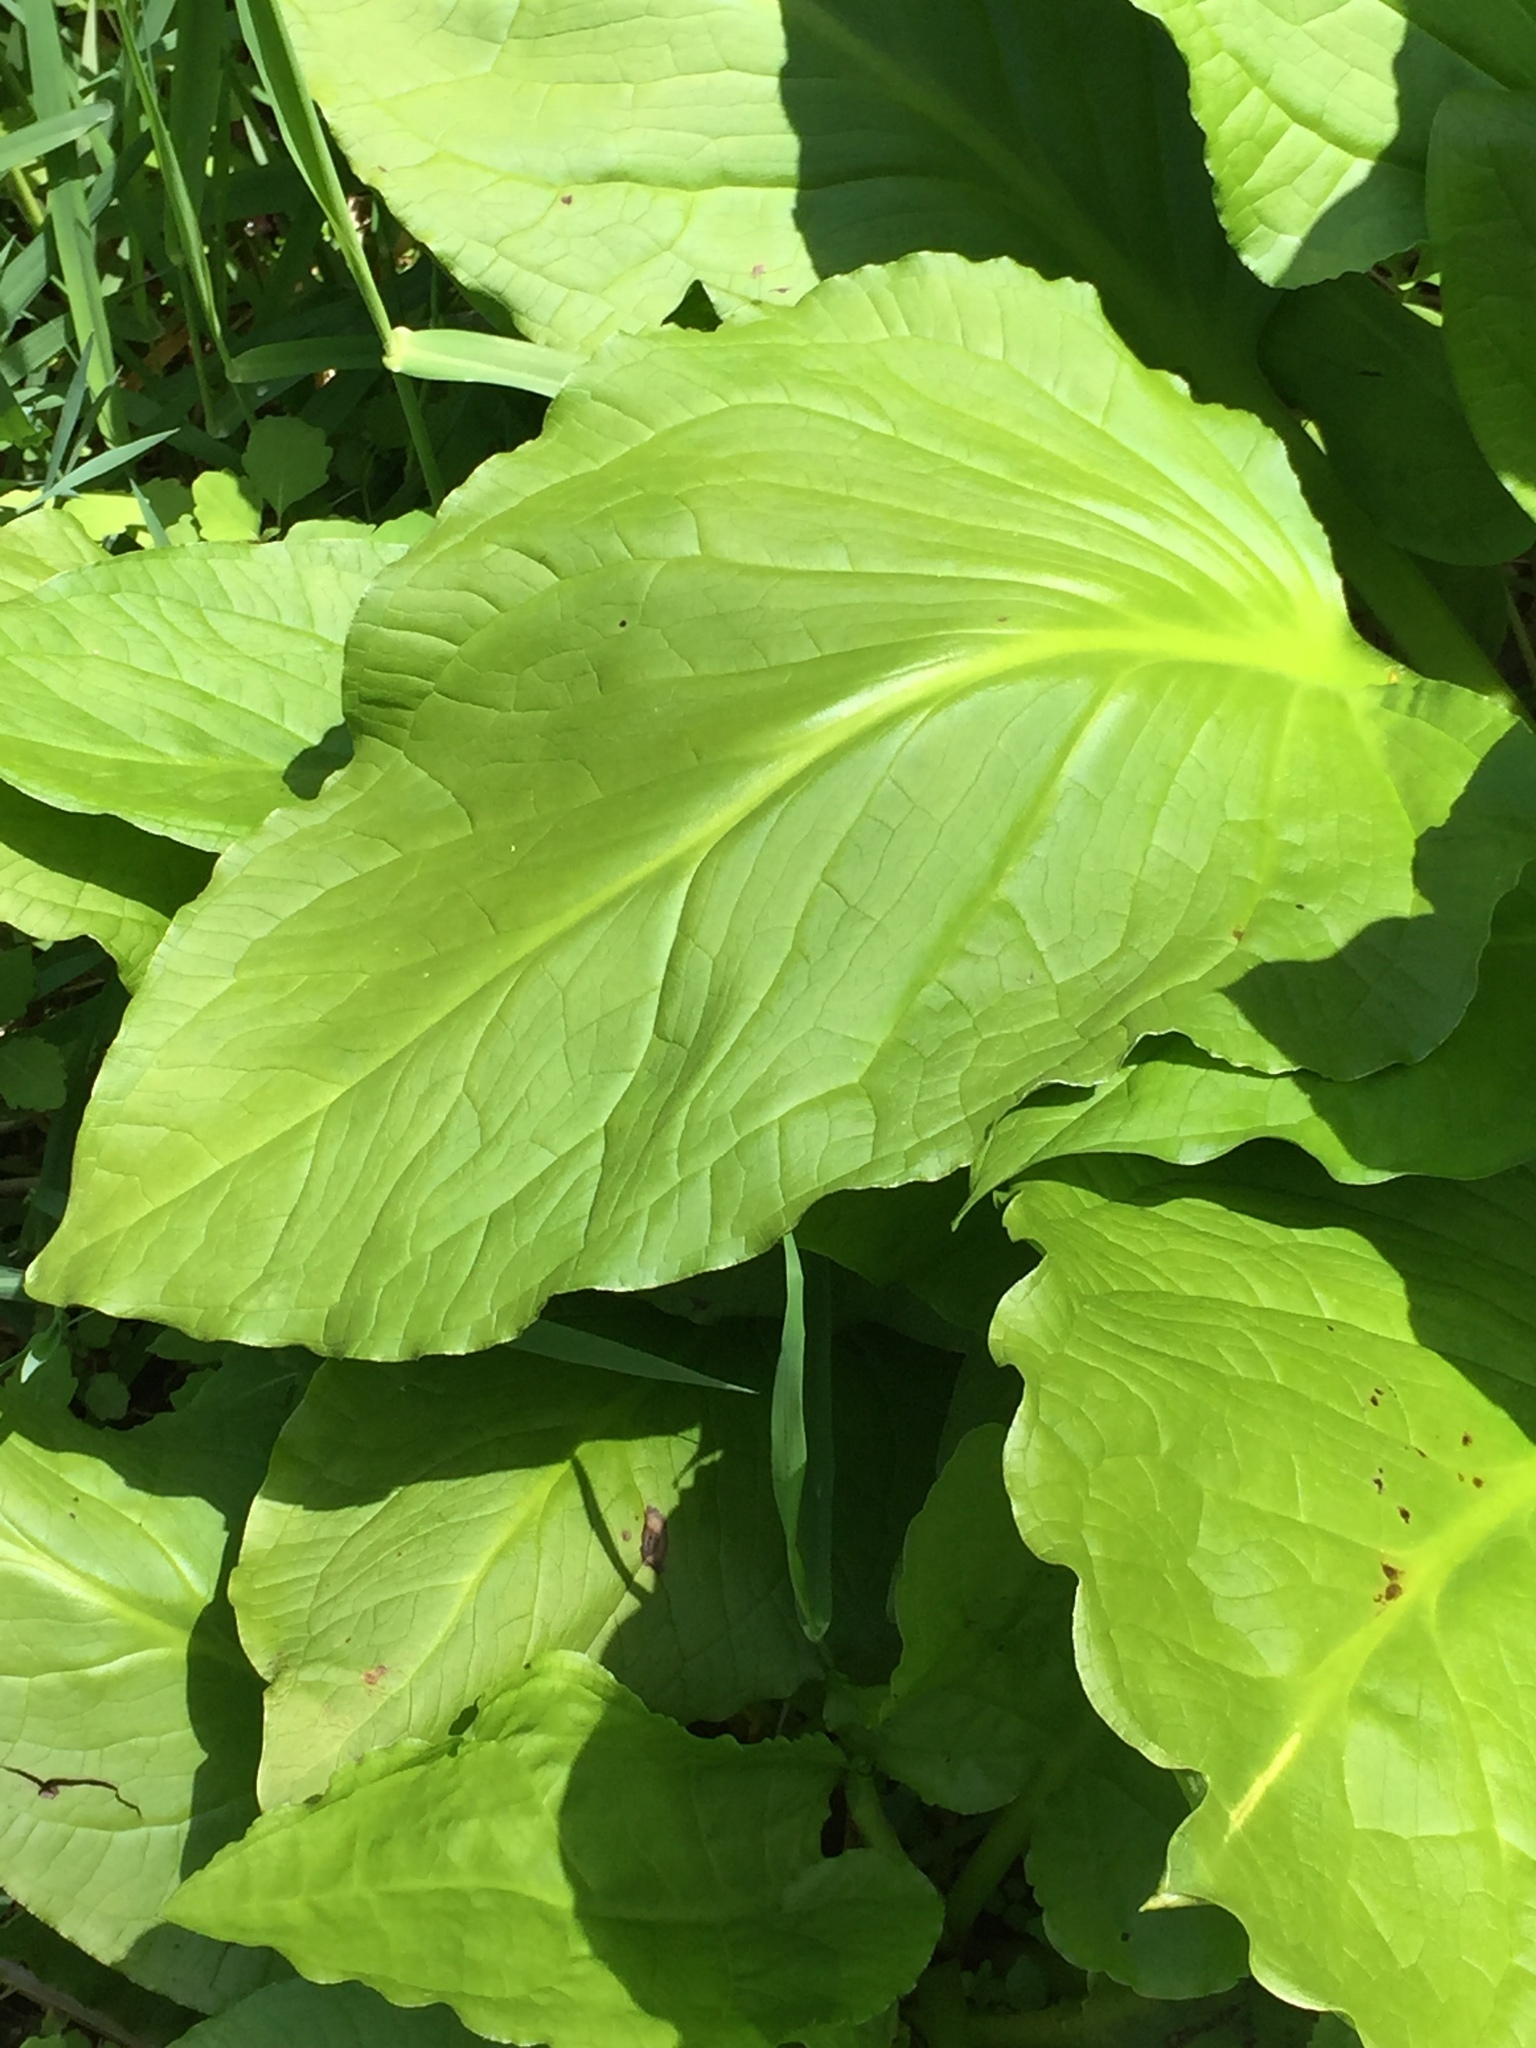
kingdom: Plantae
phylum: Tracheophyta
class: Liliopsida
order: Alismatales
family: Araceae
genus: Symplocarpus
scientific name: Symplocarpus foetidus
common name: Eastern skunk cabbage
